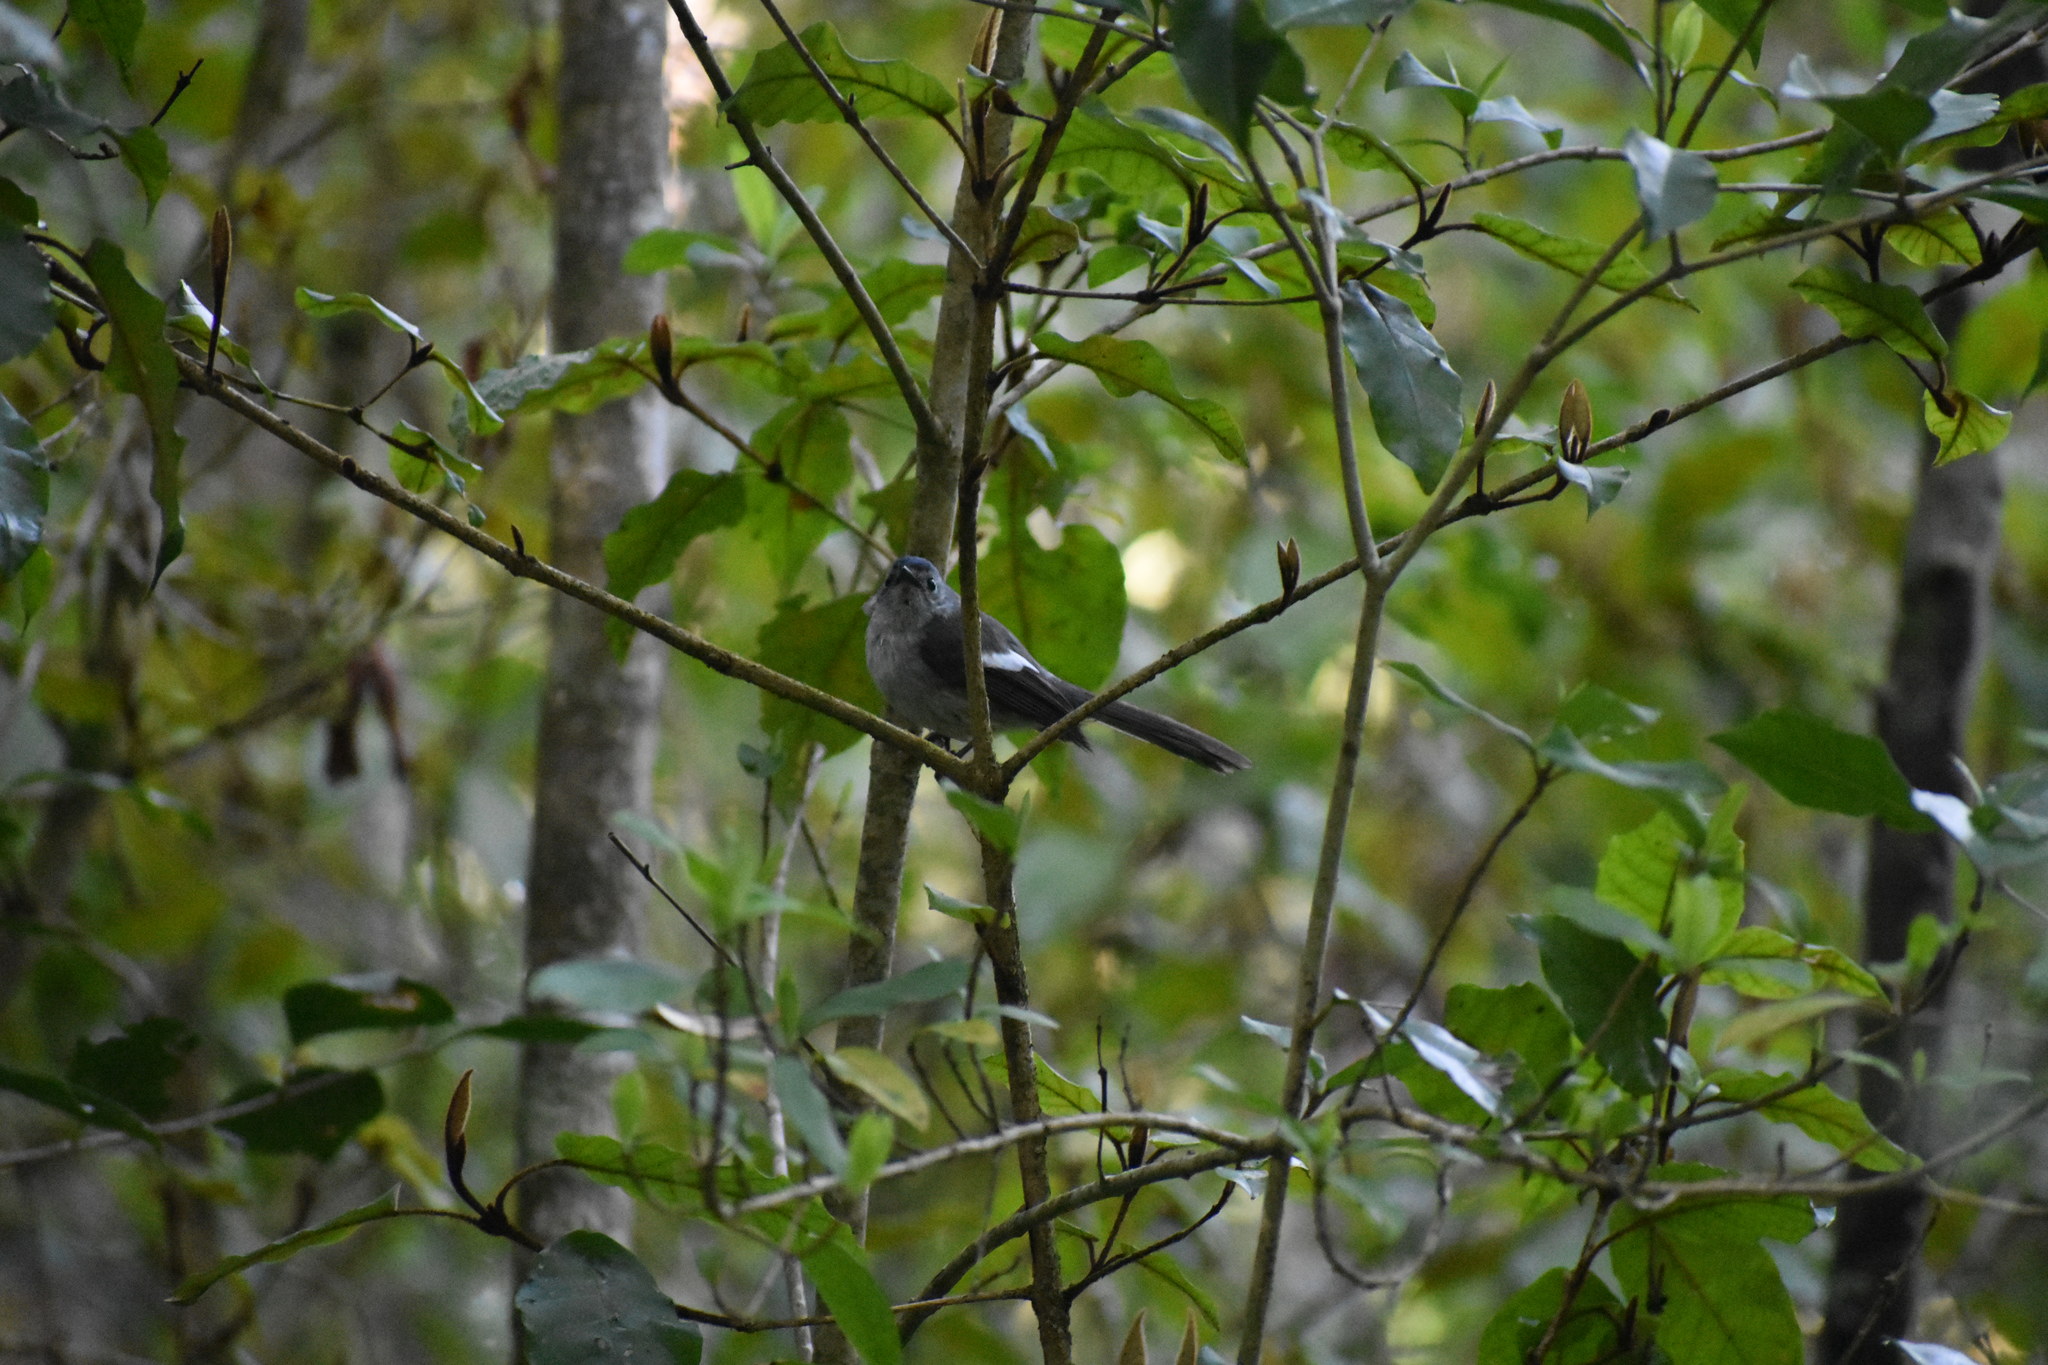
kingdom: Animalia
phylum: Chordata
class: Aves
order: Passeriformes
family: Monarchidae
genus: Trochocercus
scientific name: Trochocercus cyanomelas
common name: Blue-mantled crested flycatcher
